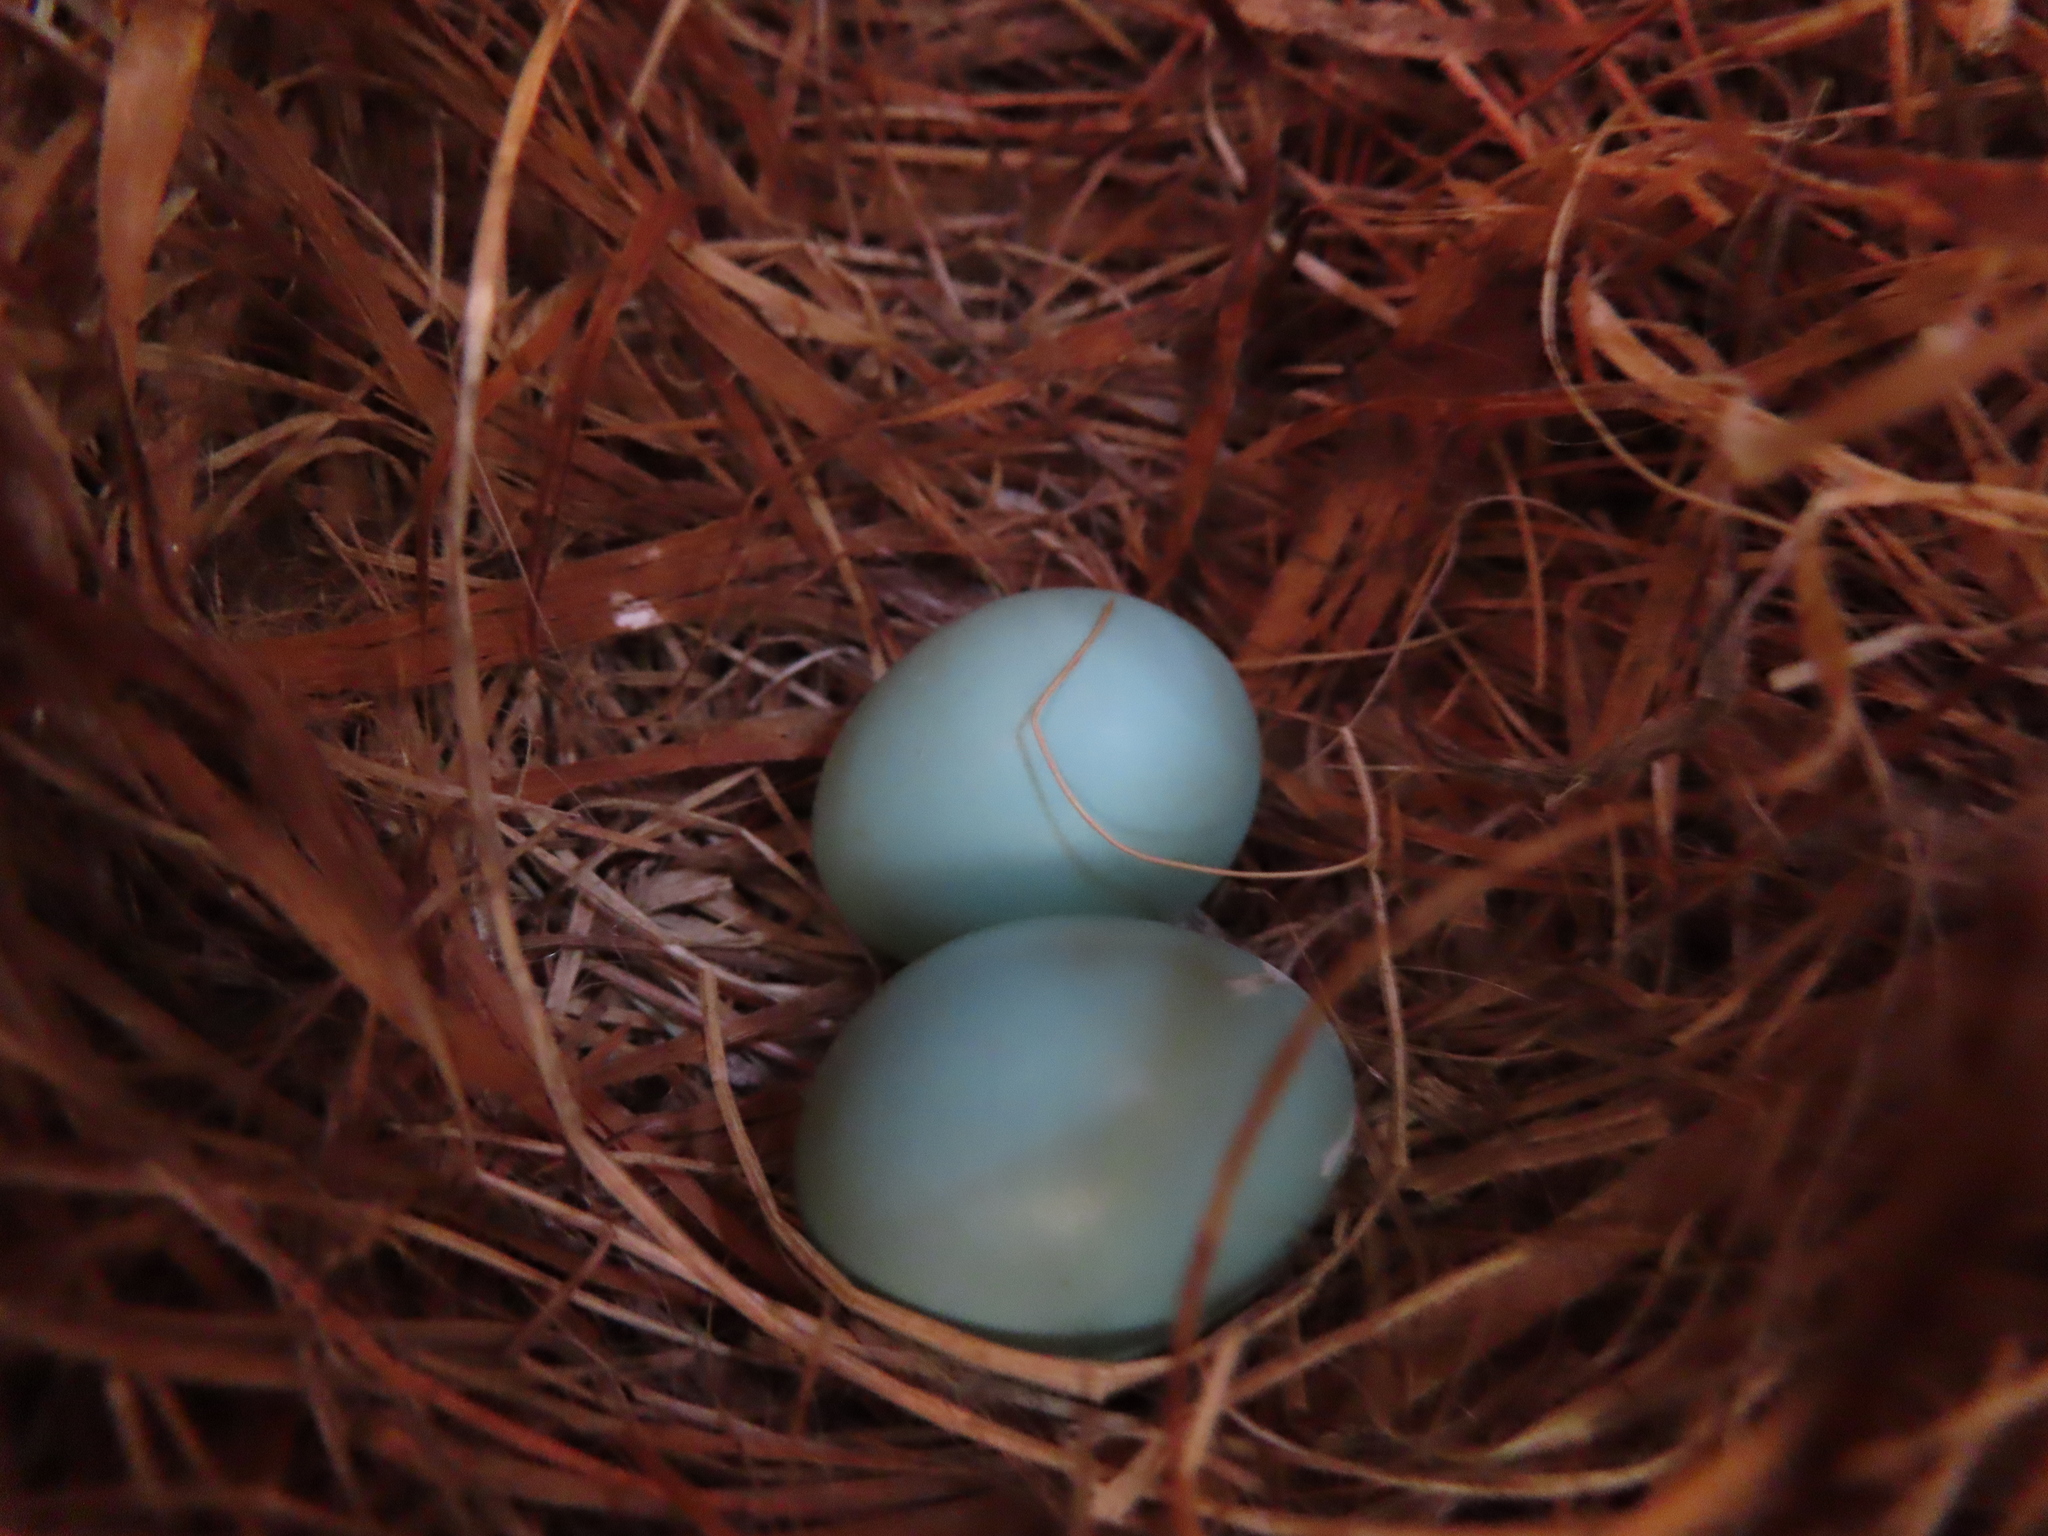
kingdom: Animalia
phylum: Chordata
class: Aves
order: Passeriformes
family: Turdidae
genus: Sialia
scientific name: Sialia sialis
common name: Eastern bluebird
